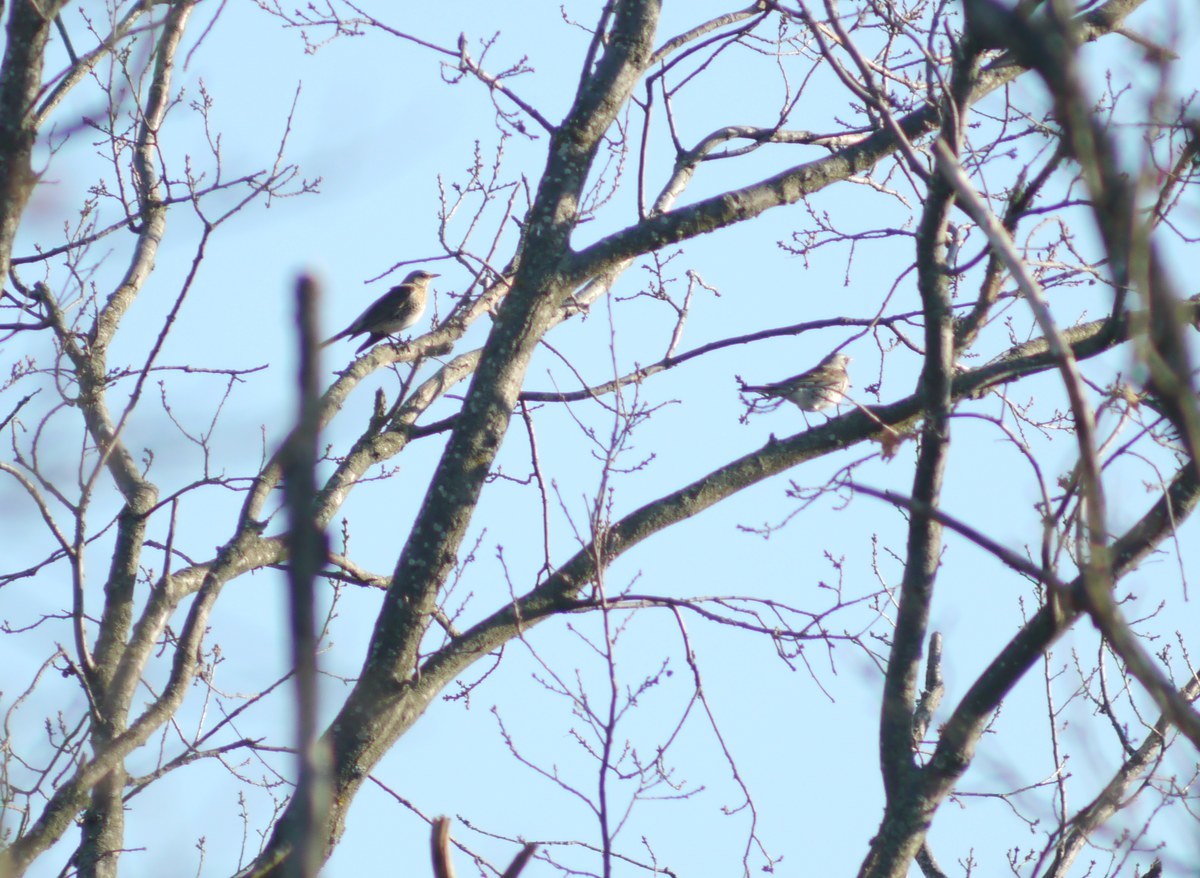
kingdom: Animalia
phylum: Chordata
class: Aves
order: Passeriformes
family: Turdidae
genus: Turdus
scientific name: Turdus pilaris
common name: Fieldfare
